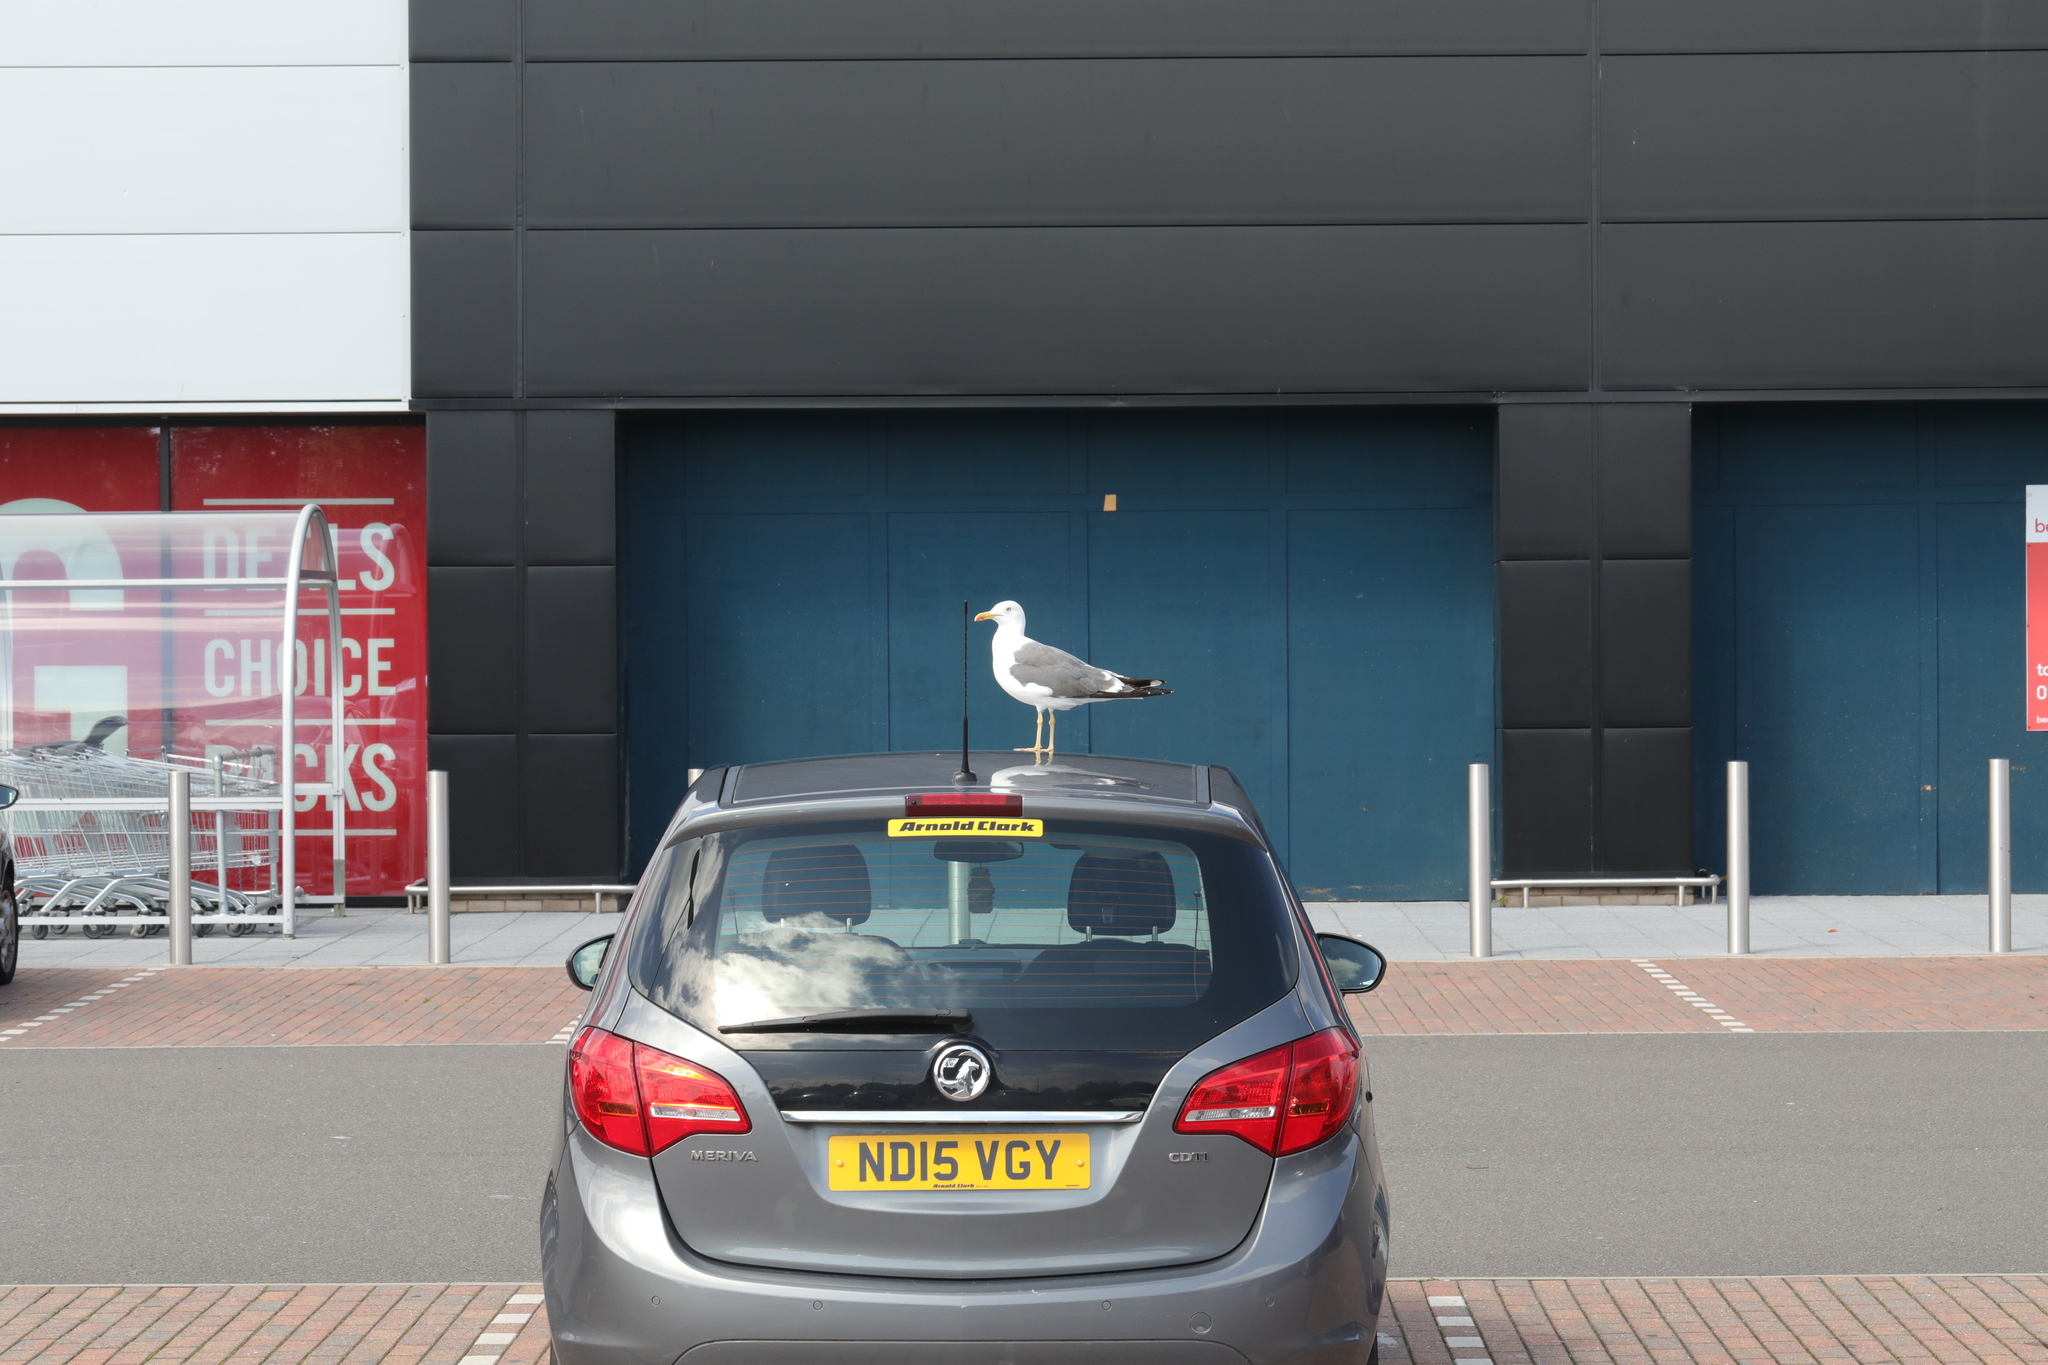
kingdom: Animalia
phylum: Chordata
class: Aves
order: Charadriiformes
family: Laridae
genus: Larus
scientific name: Larus fuscus
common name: Lesser black-backed gull
